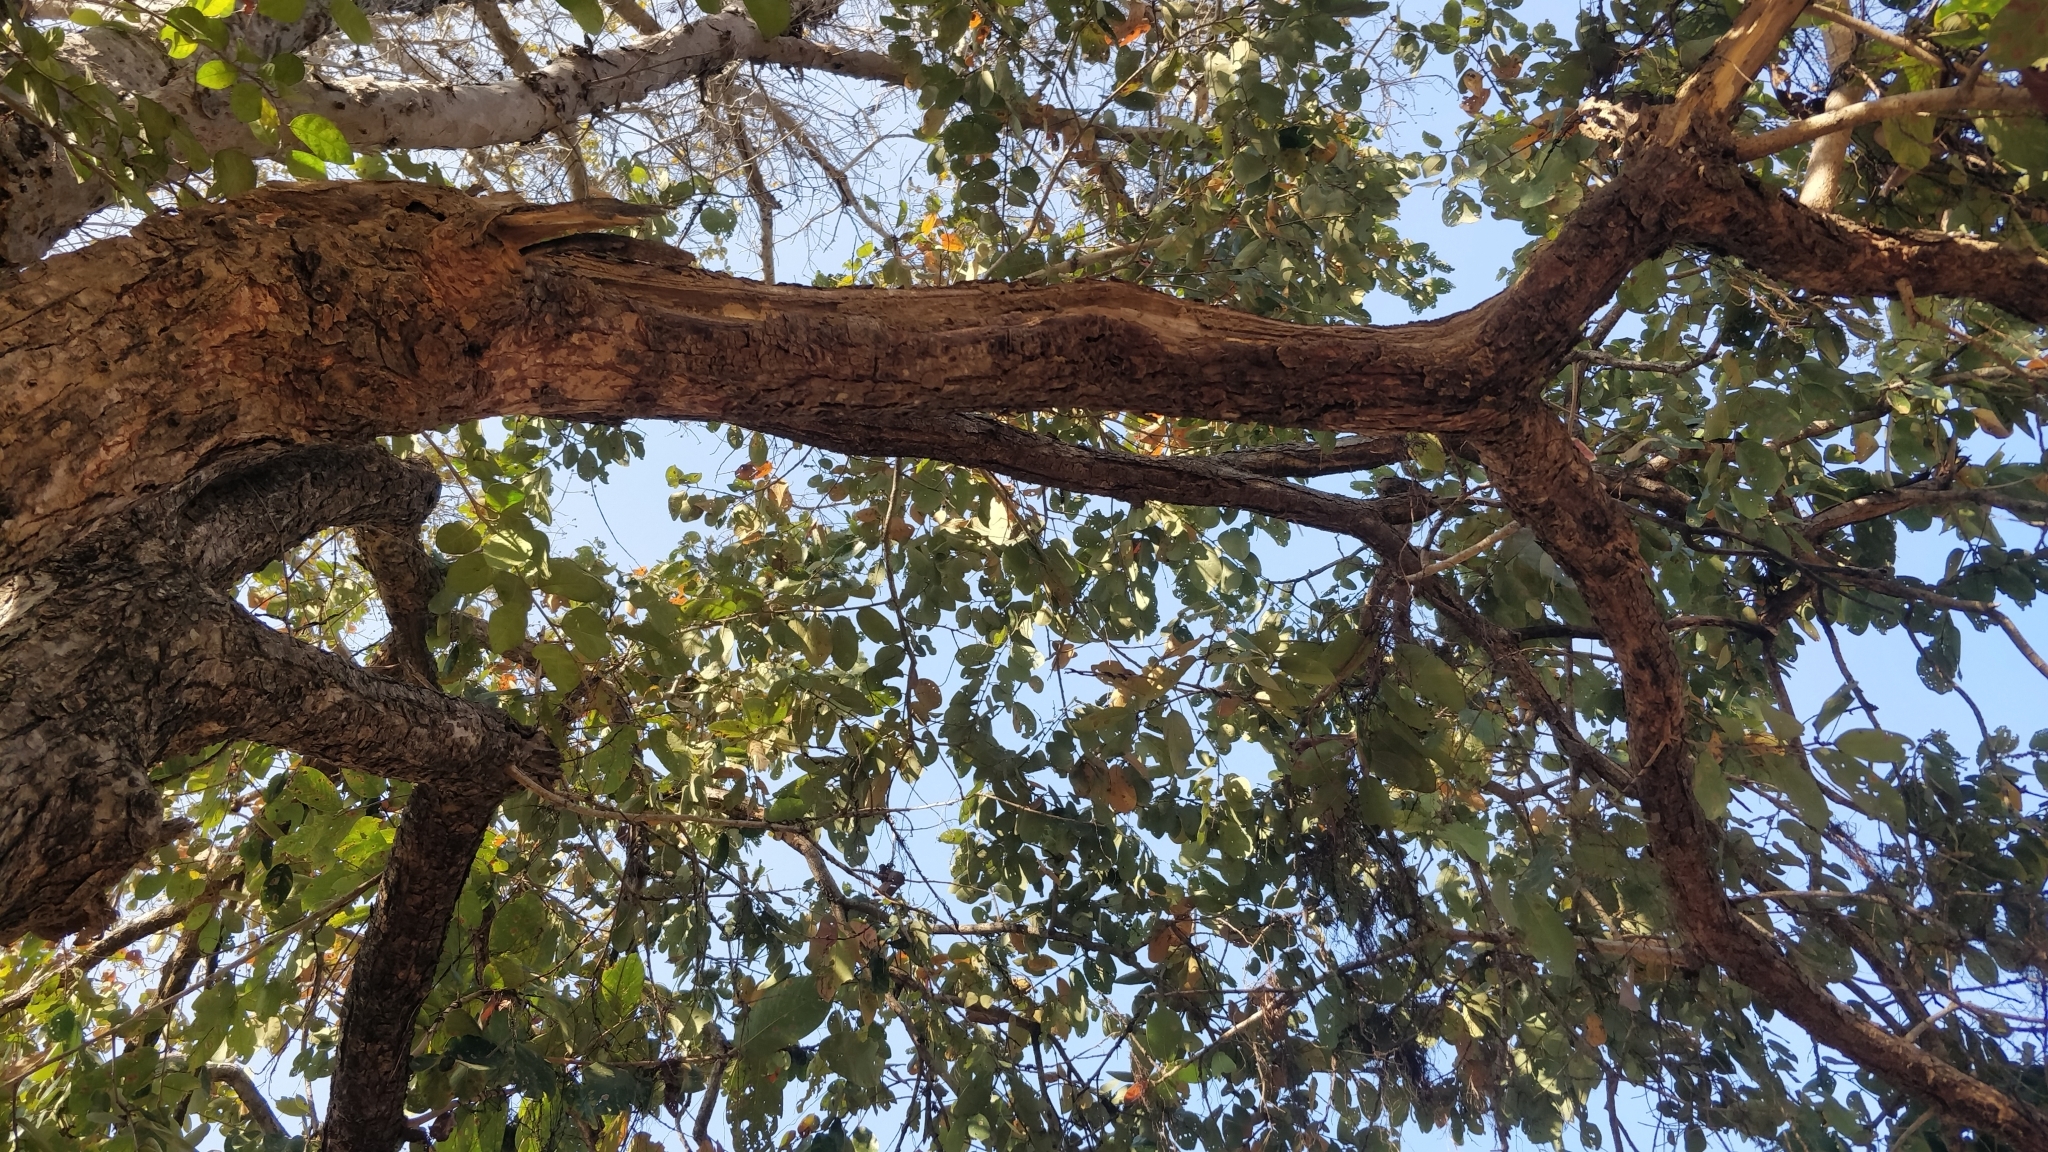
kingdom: Plantae
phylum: Tracheophyta
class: Magnoliopsida
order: Malpighiales
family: Phyllanthaceae
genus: Bridelia
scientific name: Bridelia retusa
